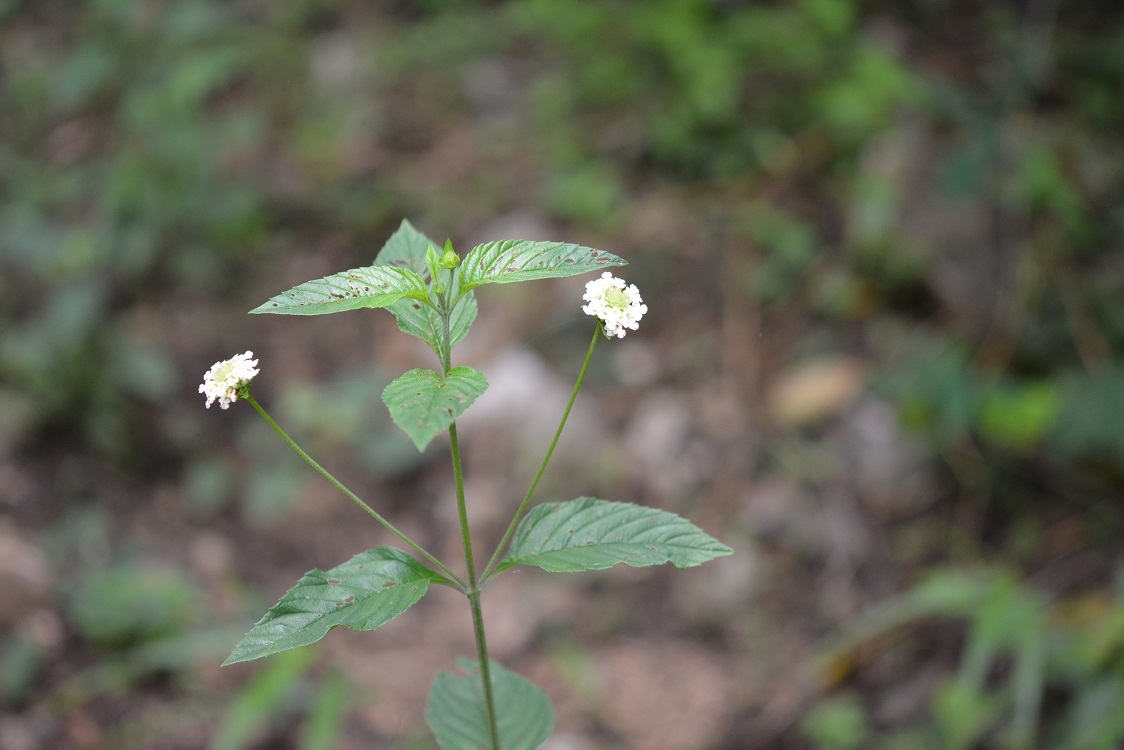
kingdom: Plantae
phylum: Tracheophyta
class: Magnoliopsida
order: Lamiales
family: Verbenaceae
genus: Lippia
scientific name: Lippia dulcis
